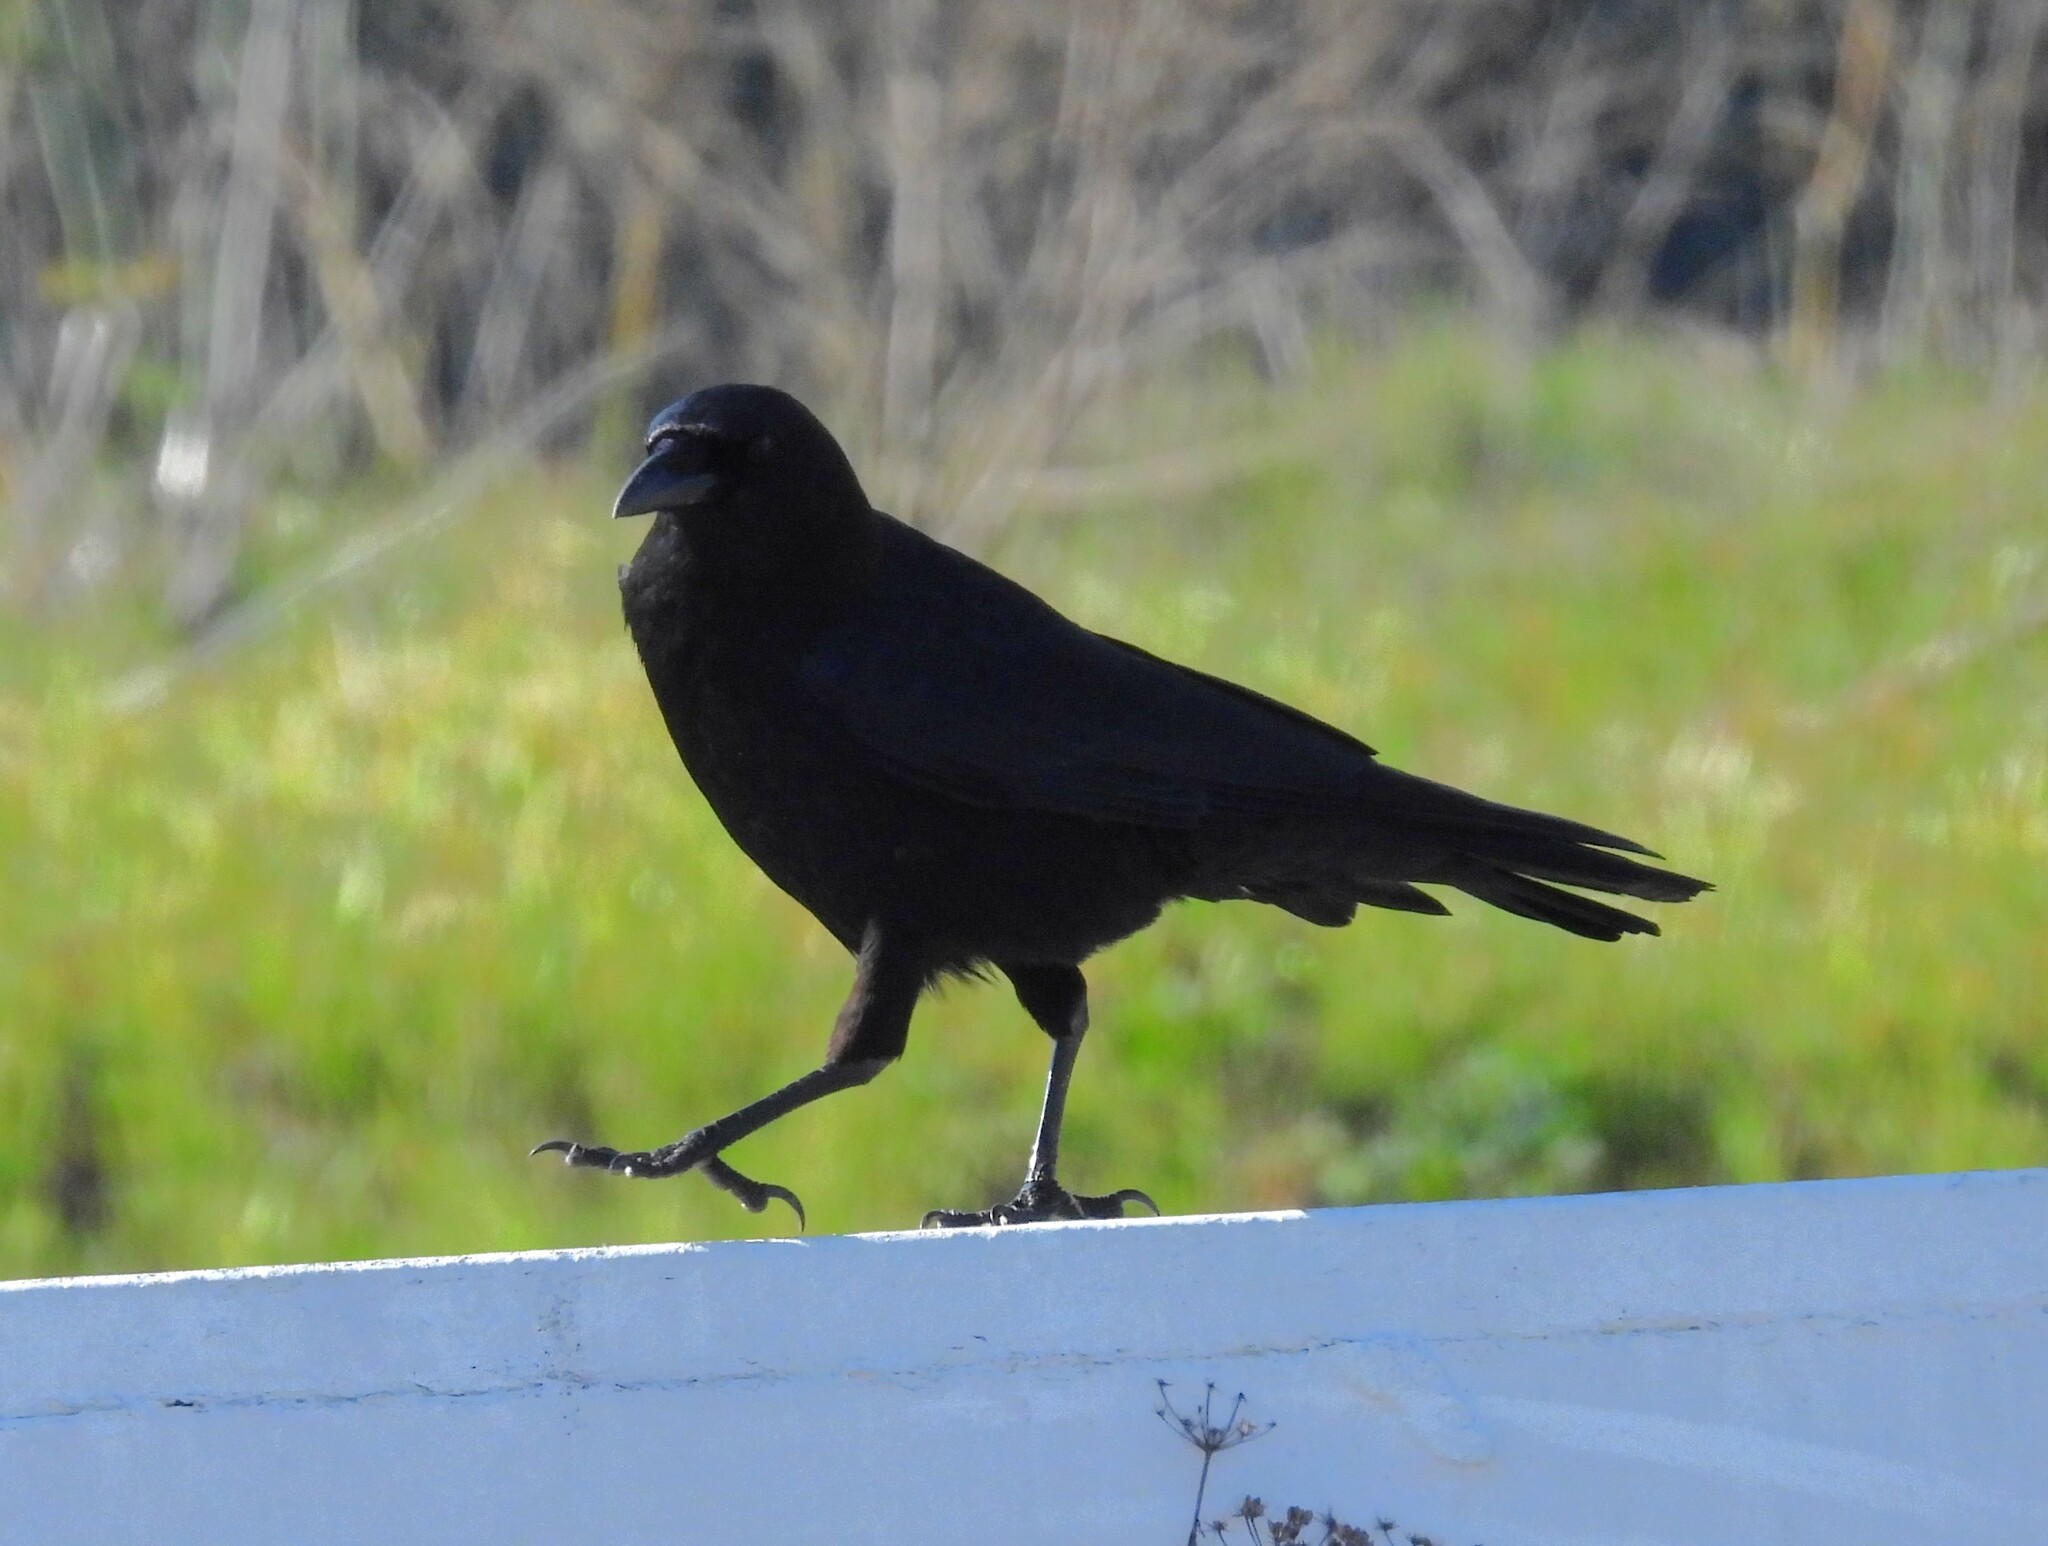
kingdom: Animalia
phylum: Chordata
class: Aves
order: Passeriformes
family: Corvidae
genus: Corvus
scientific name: Corvus brachyrhynchos
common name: American crow
